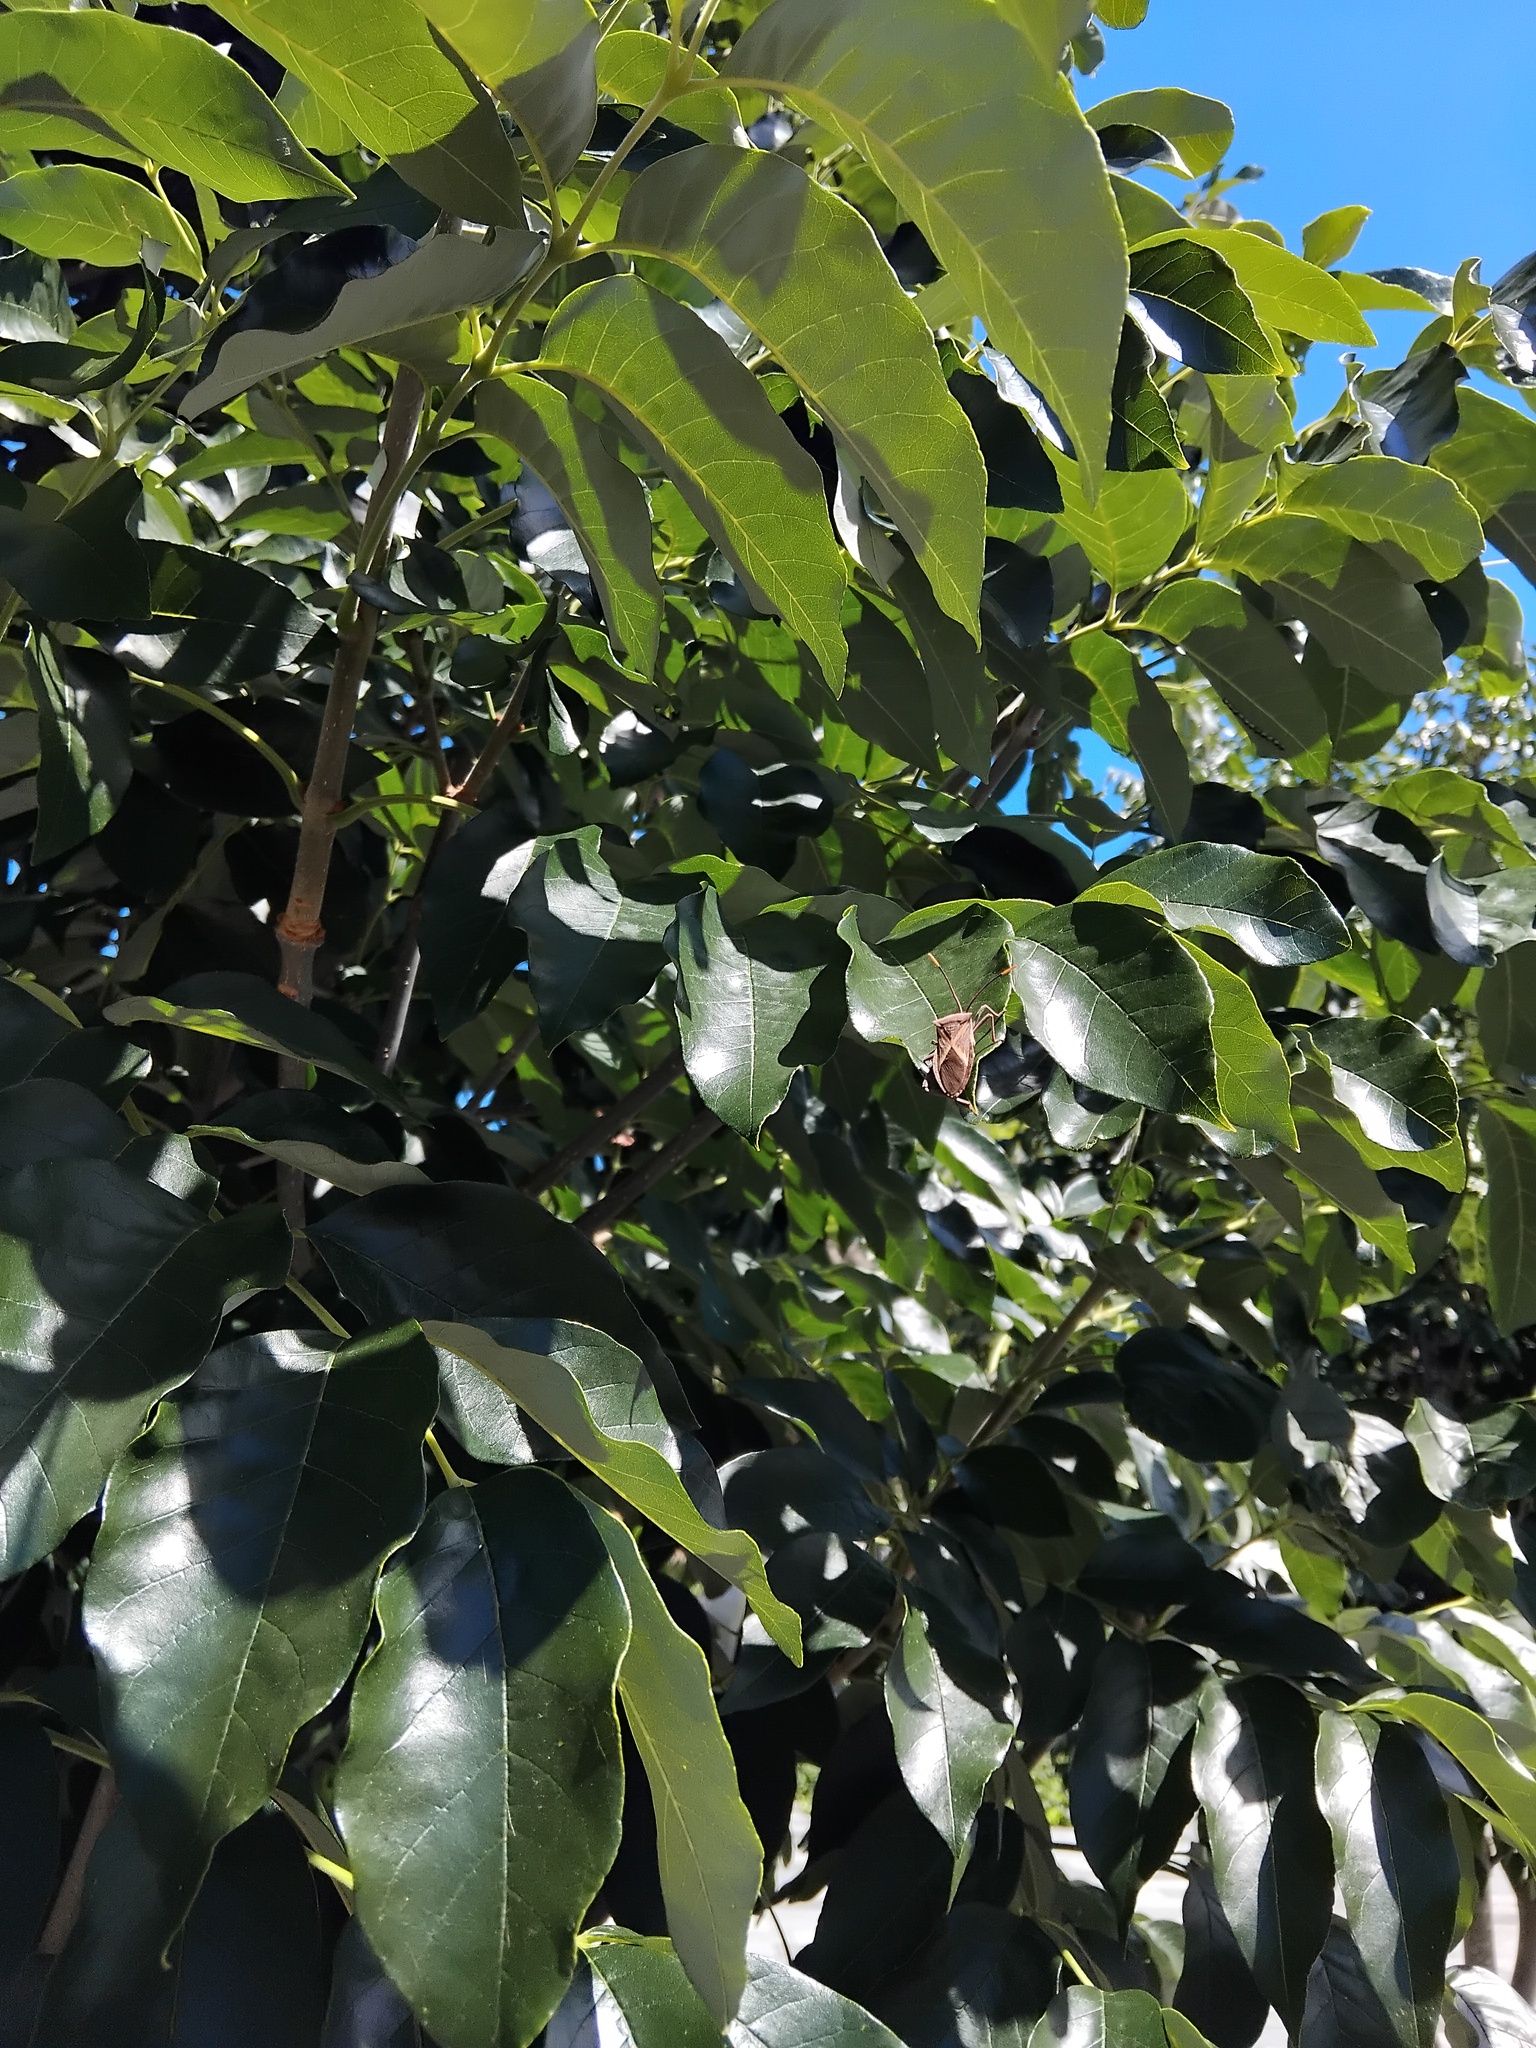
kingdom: Animalia
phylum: Arthropoda
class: Insecta
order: Hemiptera
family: Coreidae
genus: Mictis
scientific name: Mictis profana
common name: Crusader bug
